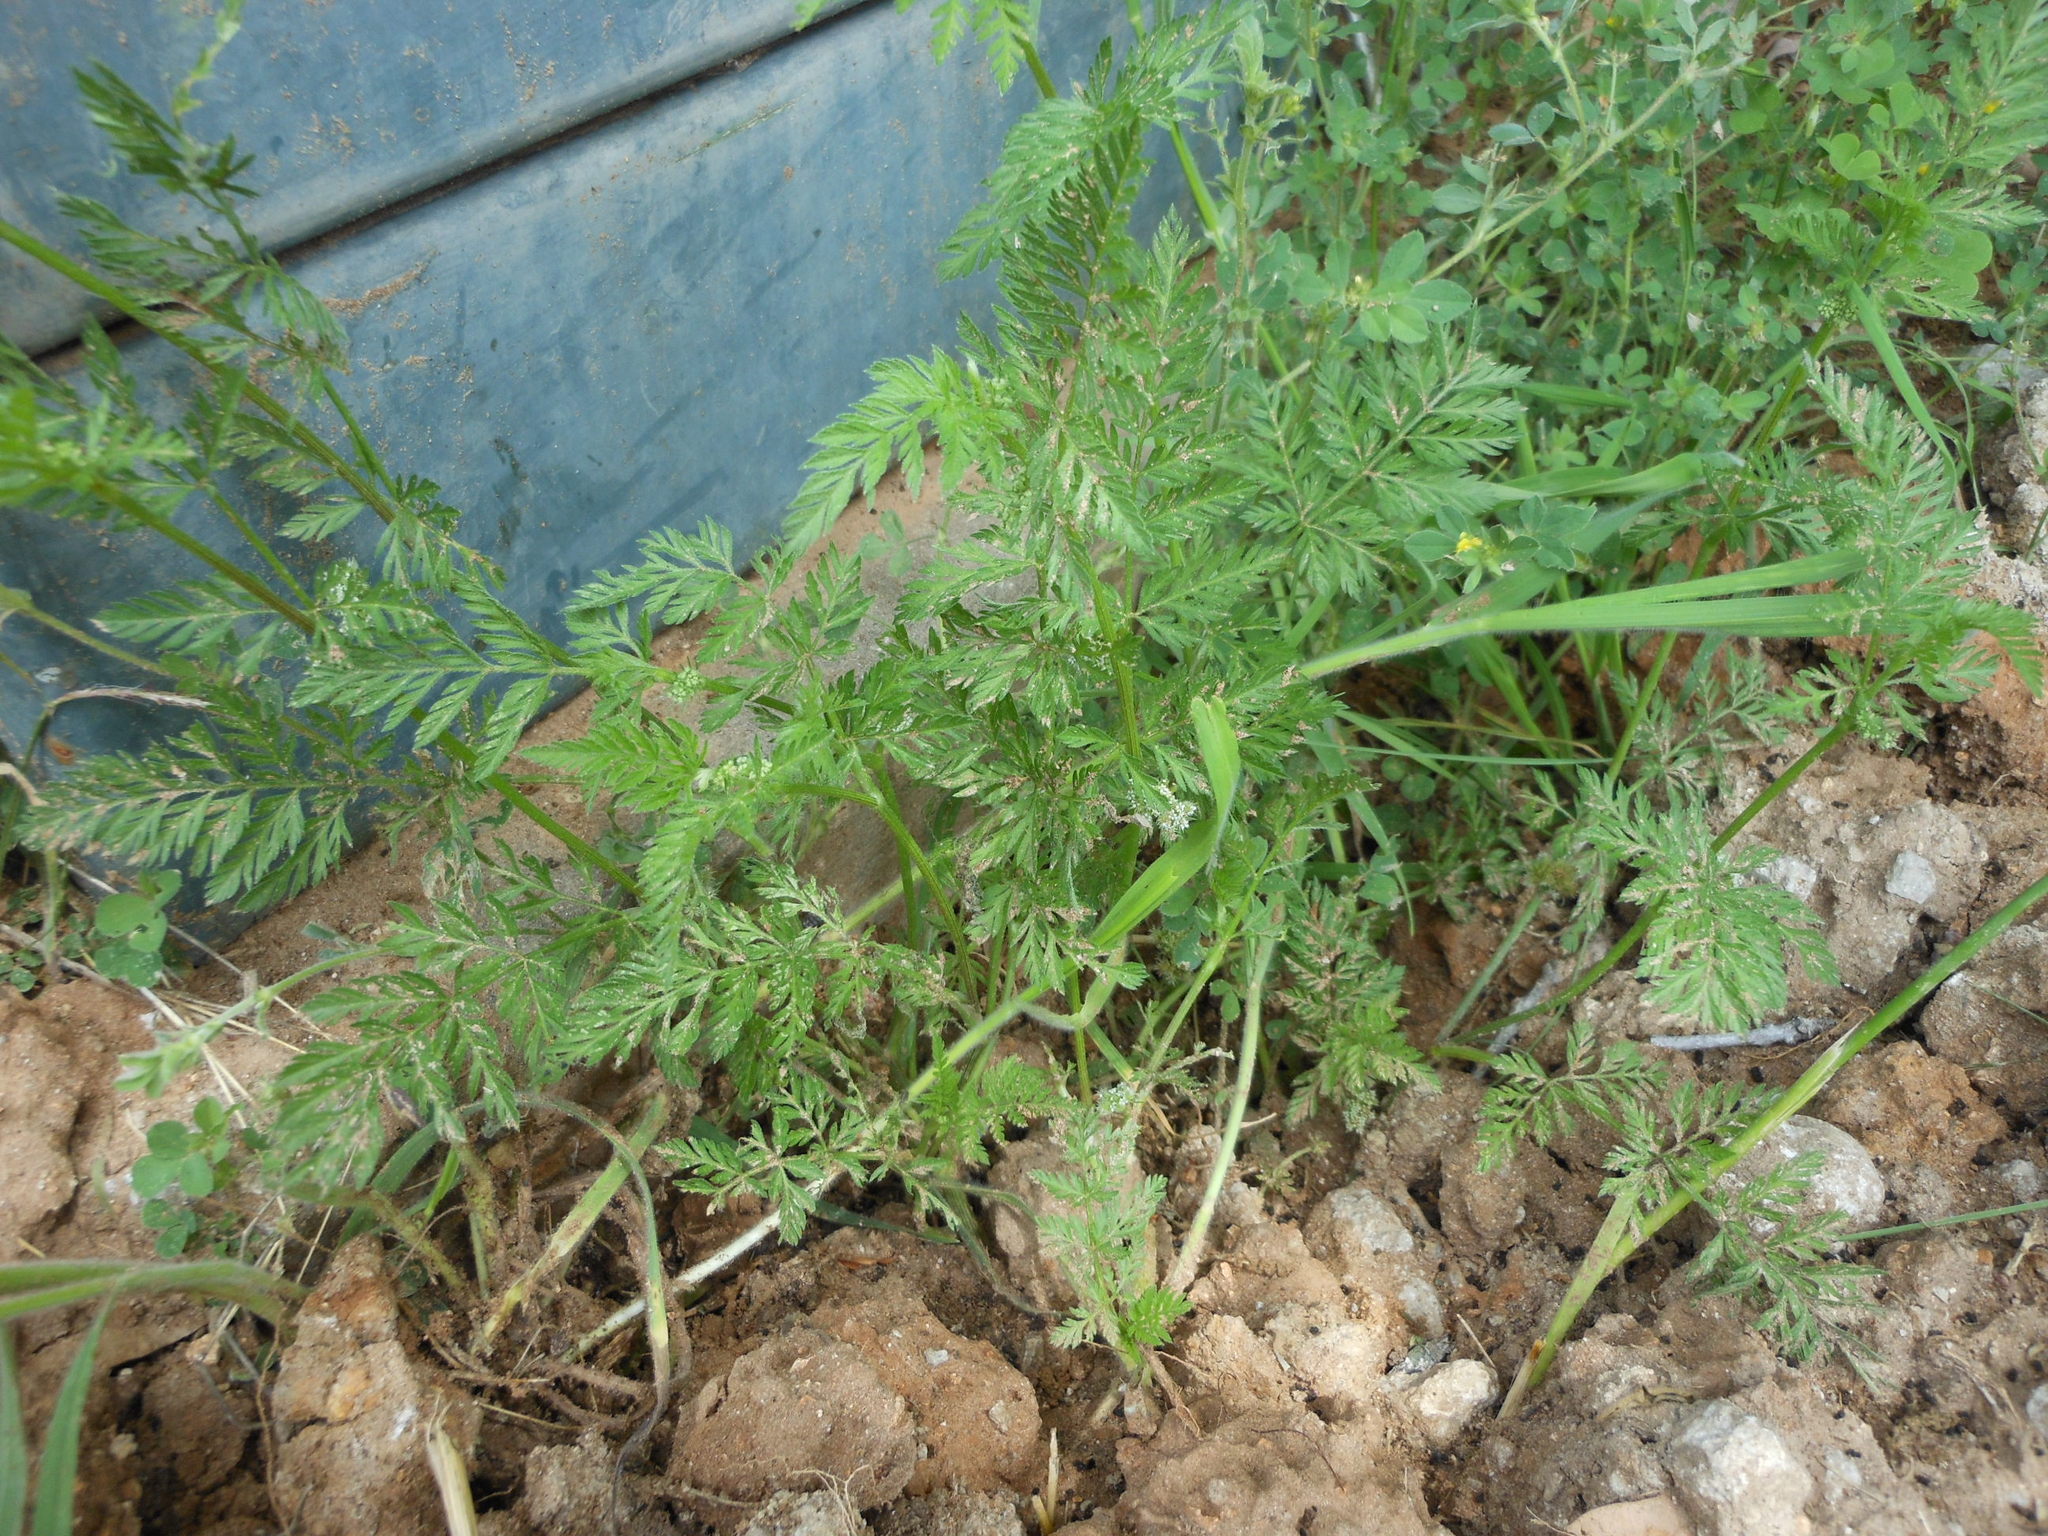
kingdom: Plantae
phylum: Tracheophyta
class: Magnoliopsida
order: Apiales
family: Apiaceae
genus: Torilis
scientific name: Torilis nodosa
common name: Knotted hedge-parsley
